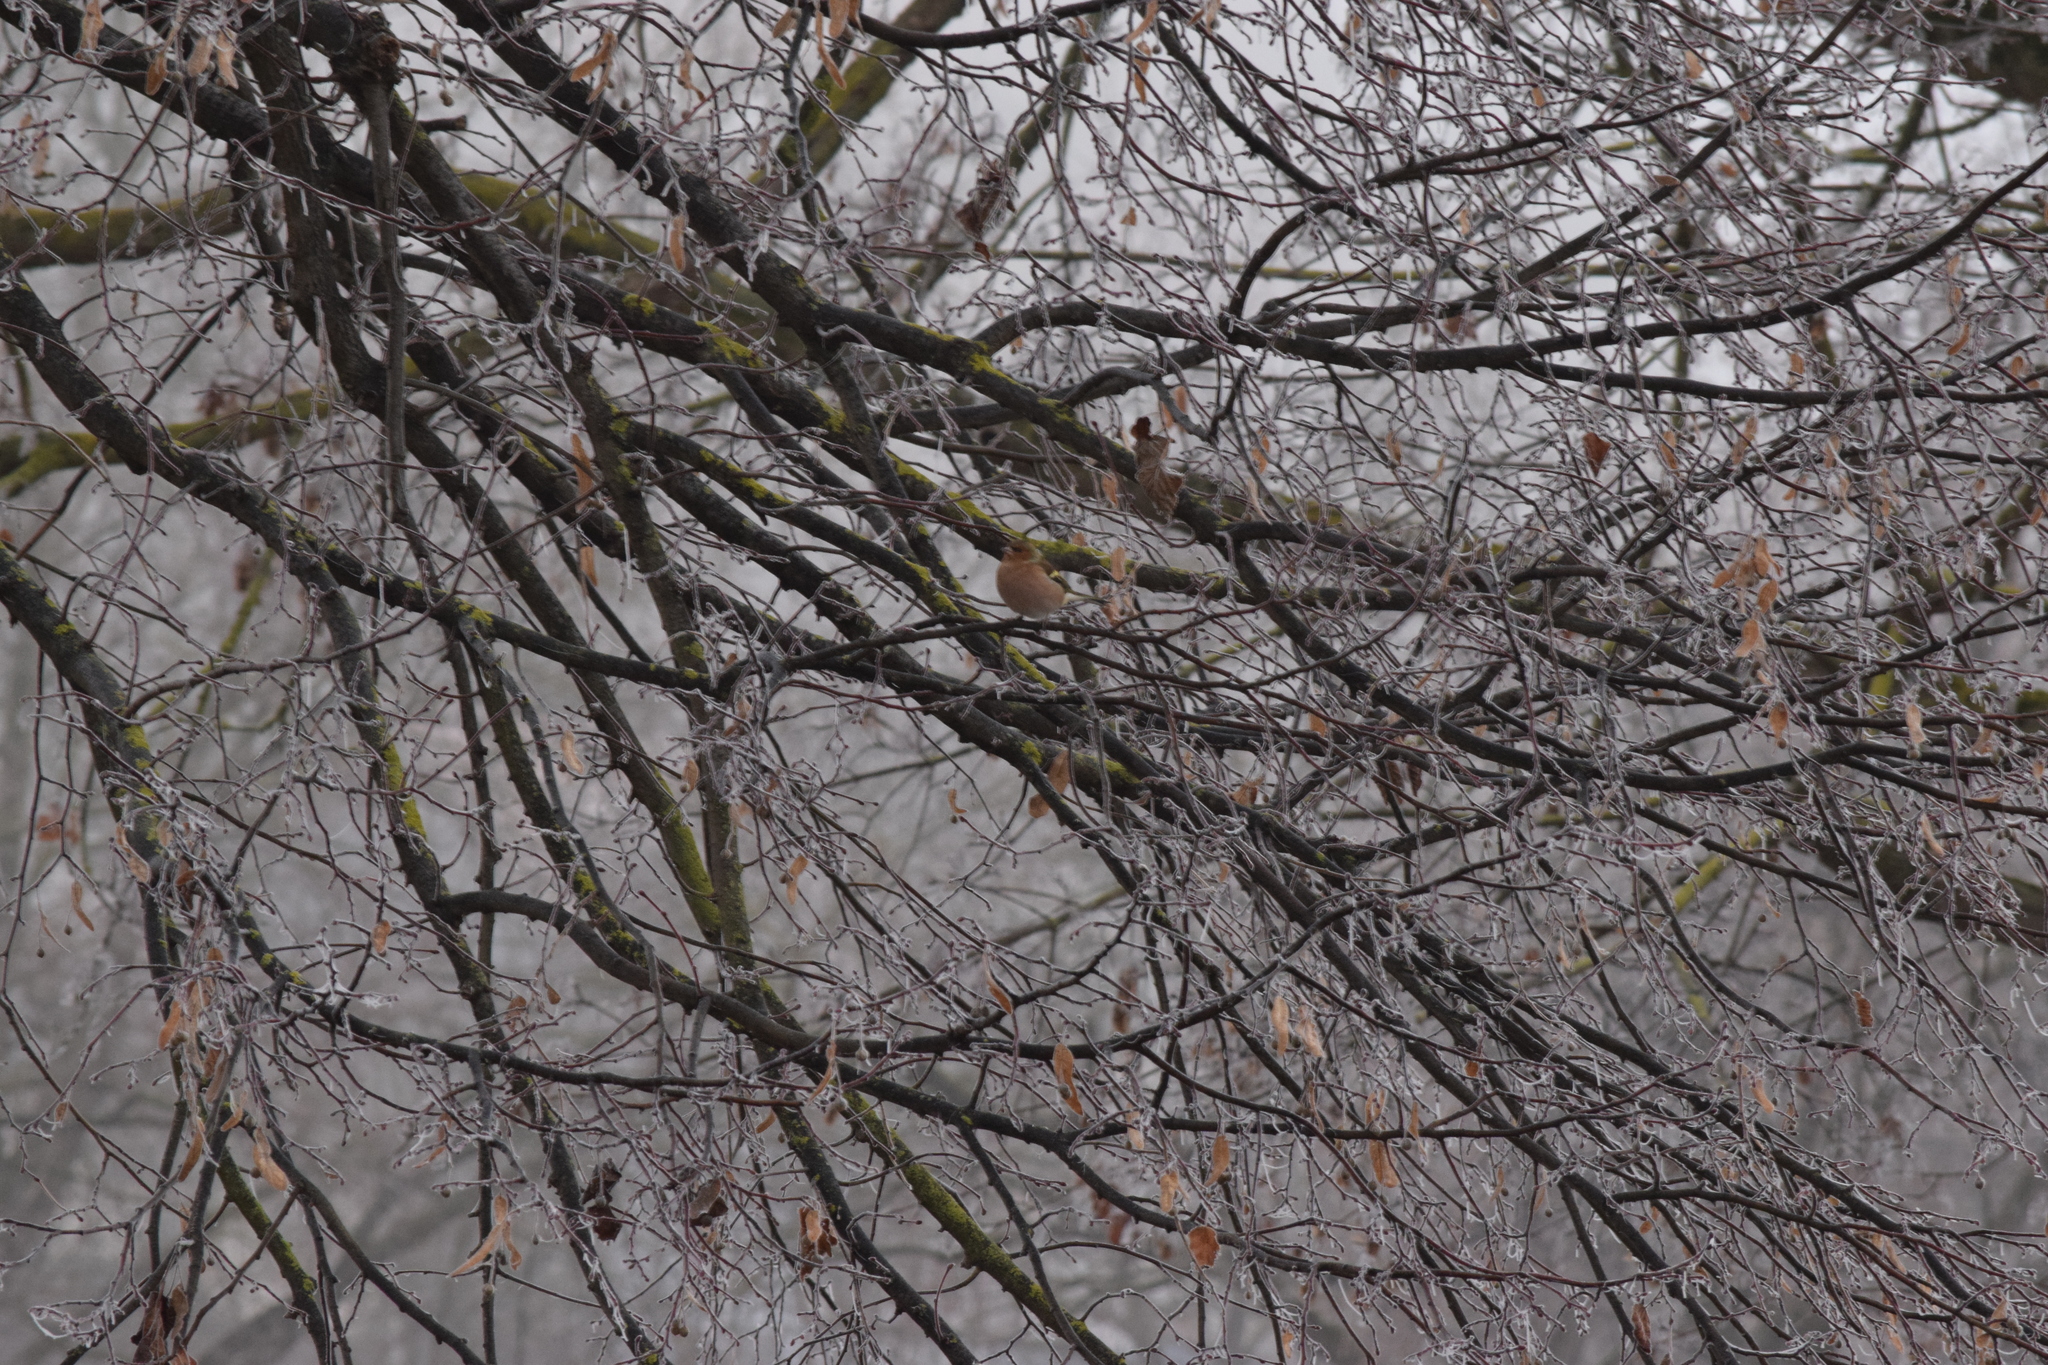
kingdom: Animalia
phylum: Chordata
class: Aves
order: Passeriformes
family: Fringillidae
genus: Fringilla
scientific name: Fringilla coelebs
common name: Common chaffinch
